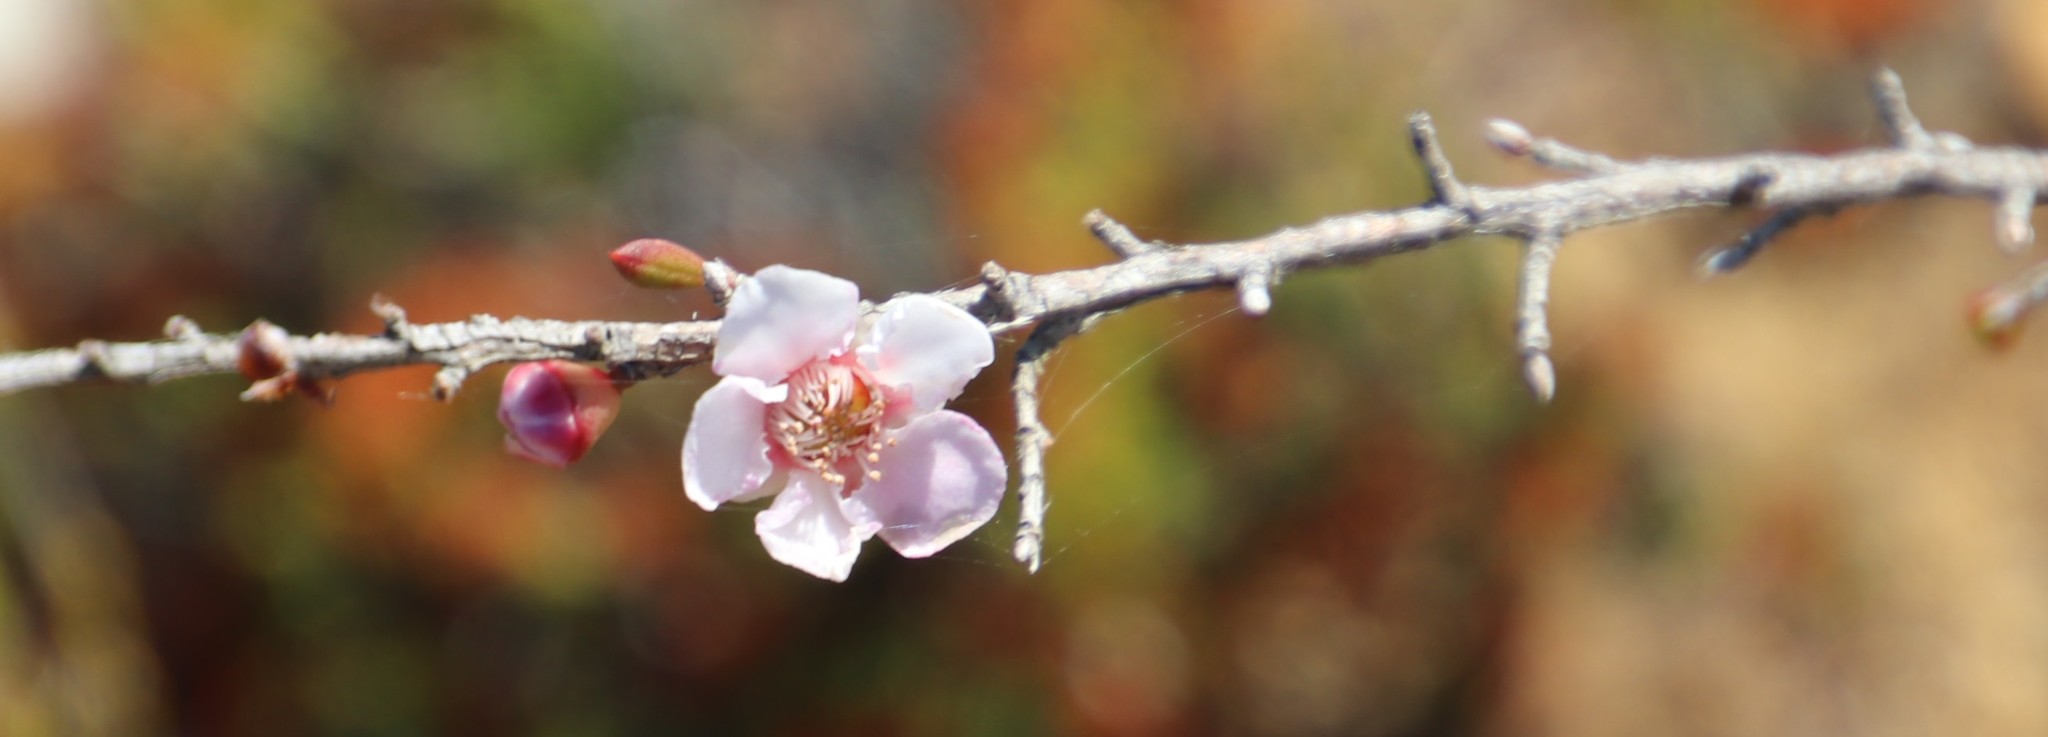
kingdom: Plantae
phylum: Tracheophyta
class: Magnoliopsida
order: Myrtales
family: Myrtaceae
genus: Leptospermum
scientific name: Leptospermum squarrosum
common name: Peach-blossom teatree
